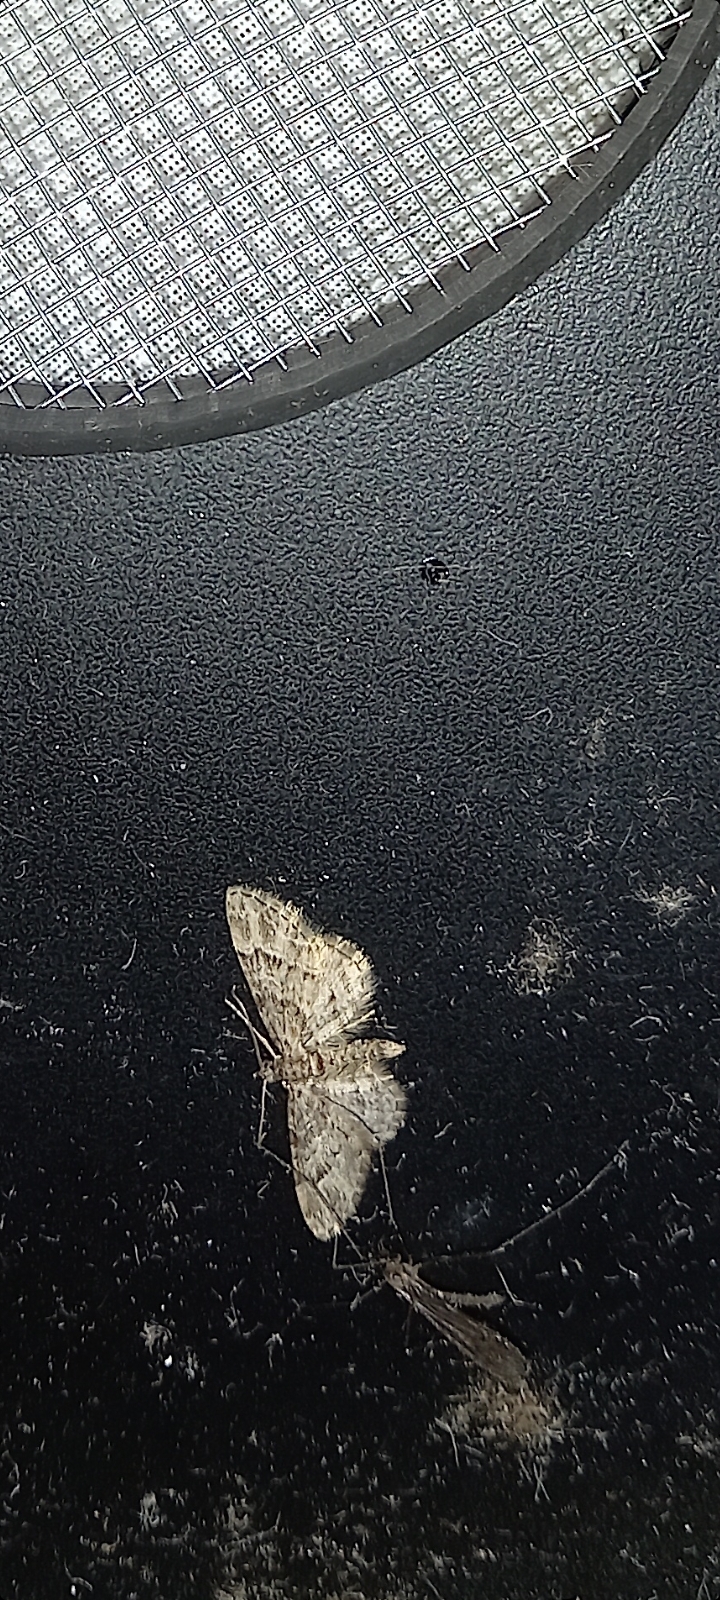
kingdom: Animalia
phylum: Arthropoda
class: Insecta
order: Lepidoptera
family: Geometridae
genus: Gymnoscelis
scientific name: Gymnoscelis rufifasciata
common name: Double-striped pug
